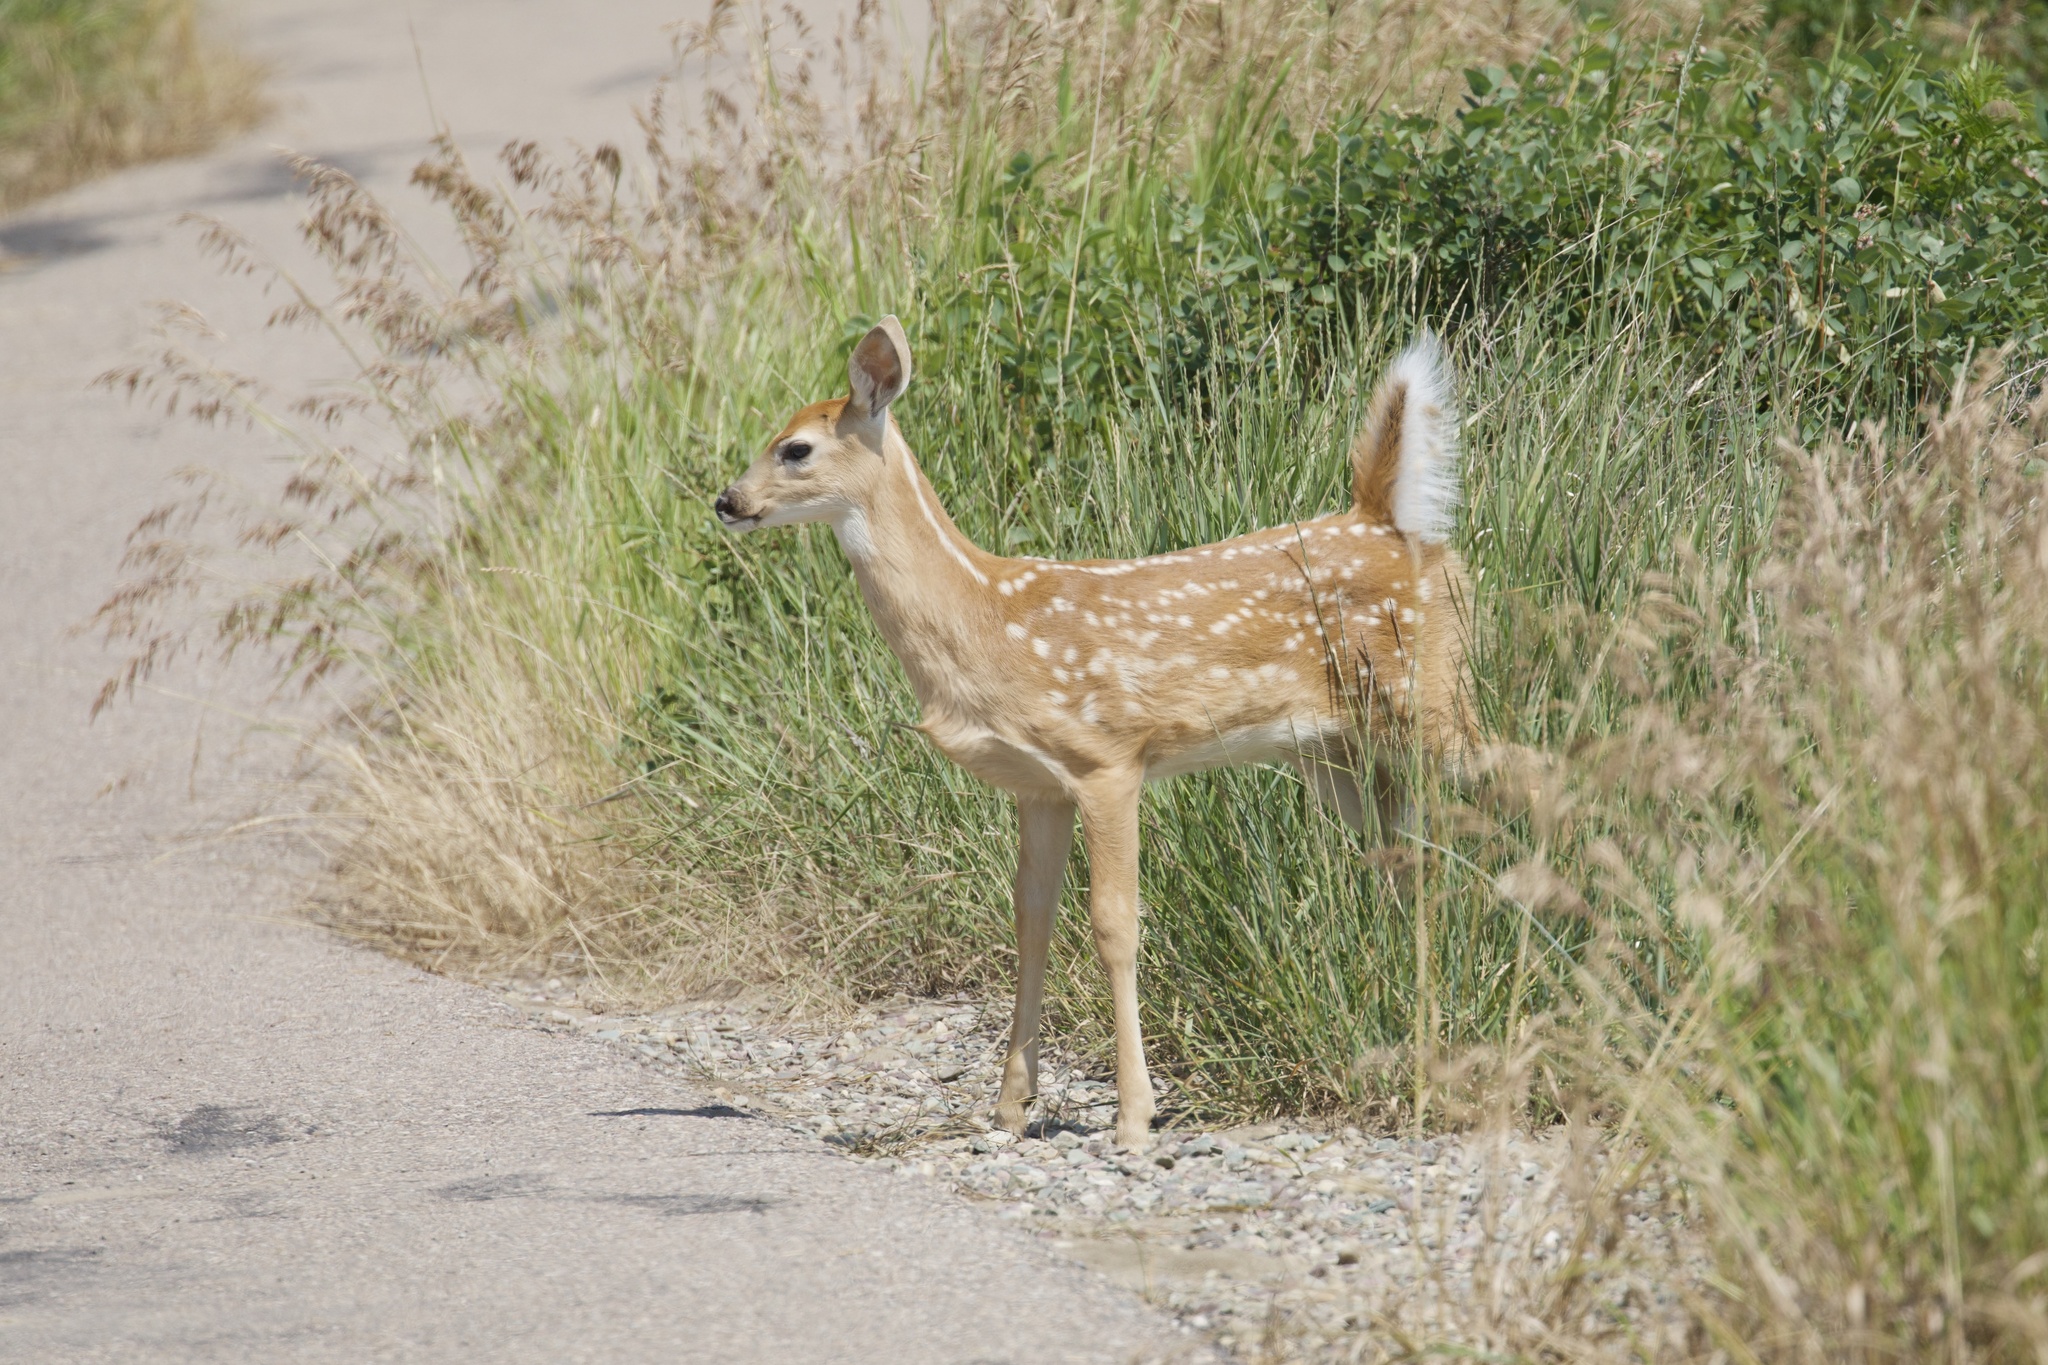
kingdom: Animalia
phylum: Chordata
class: Mammalia
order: Artiodactyla
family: Cervidae
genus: Odocoileus
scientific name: Odocoileus virginianus
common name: White-tailed deer
